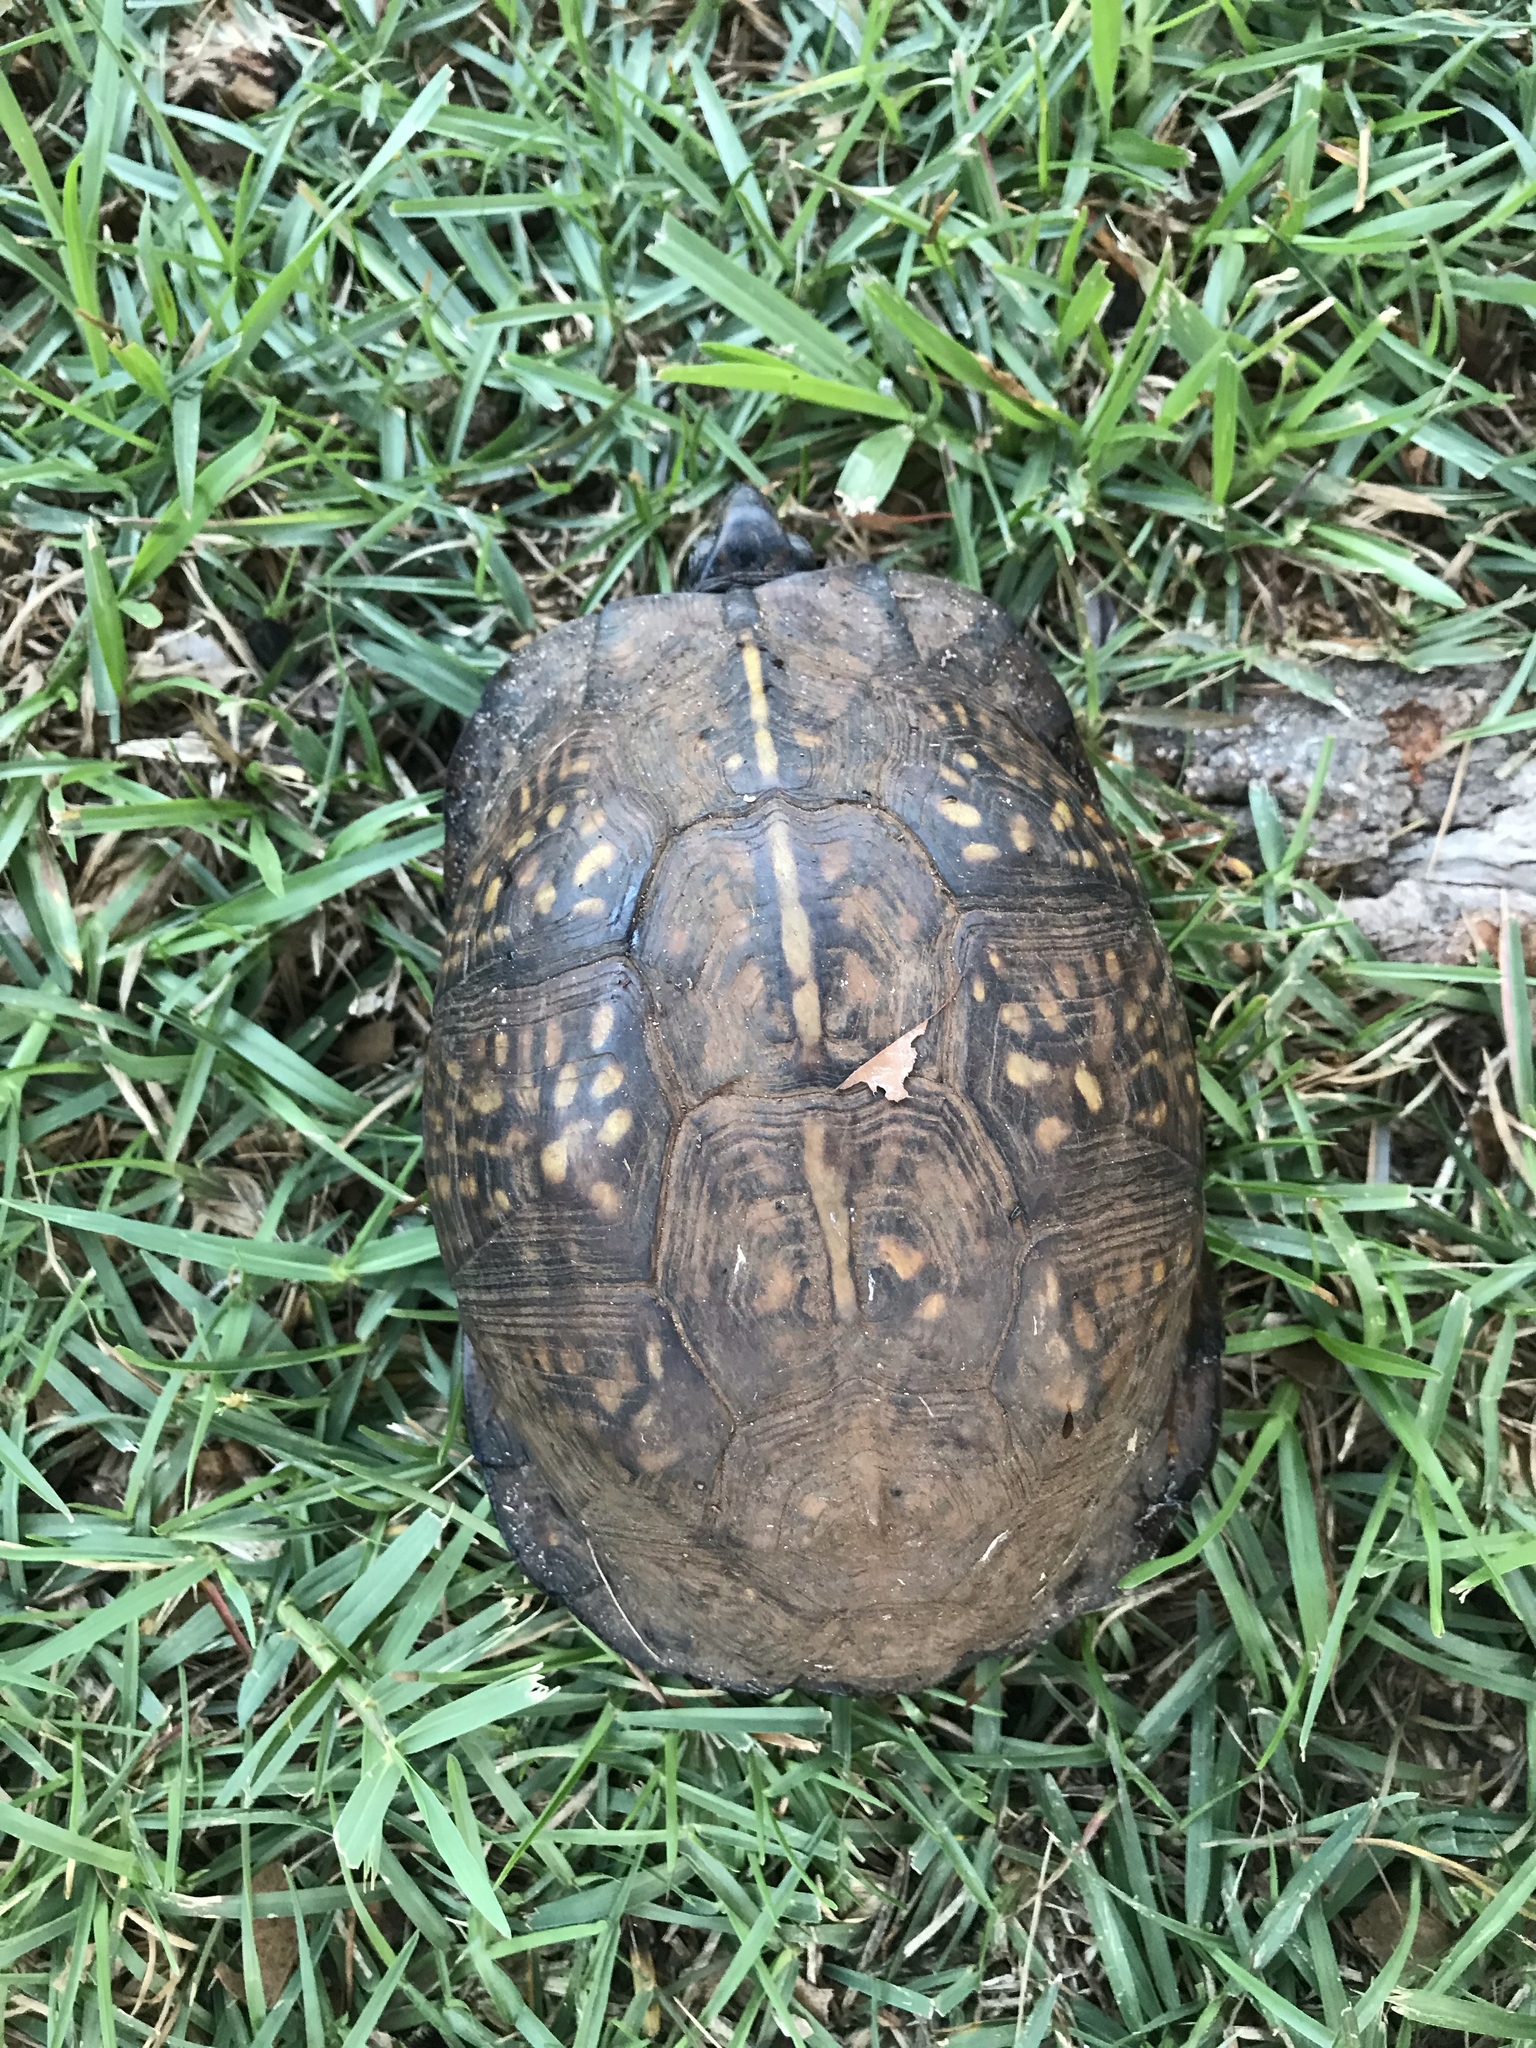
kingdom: Animalia
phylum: Chordata
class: Testudines
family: Emydidae
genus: Terrapene
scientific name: Terrapene carolina
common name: Common box turtle
